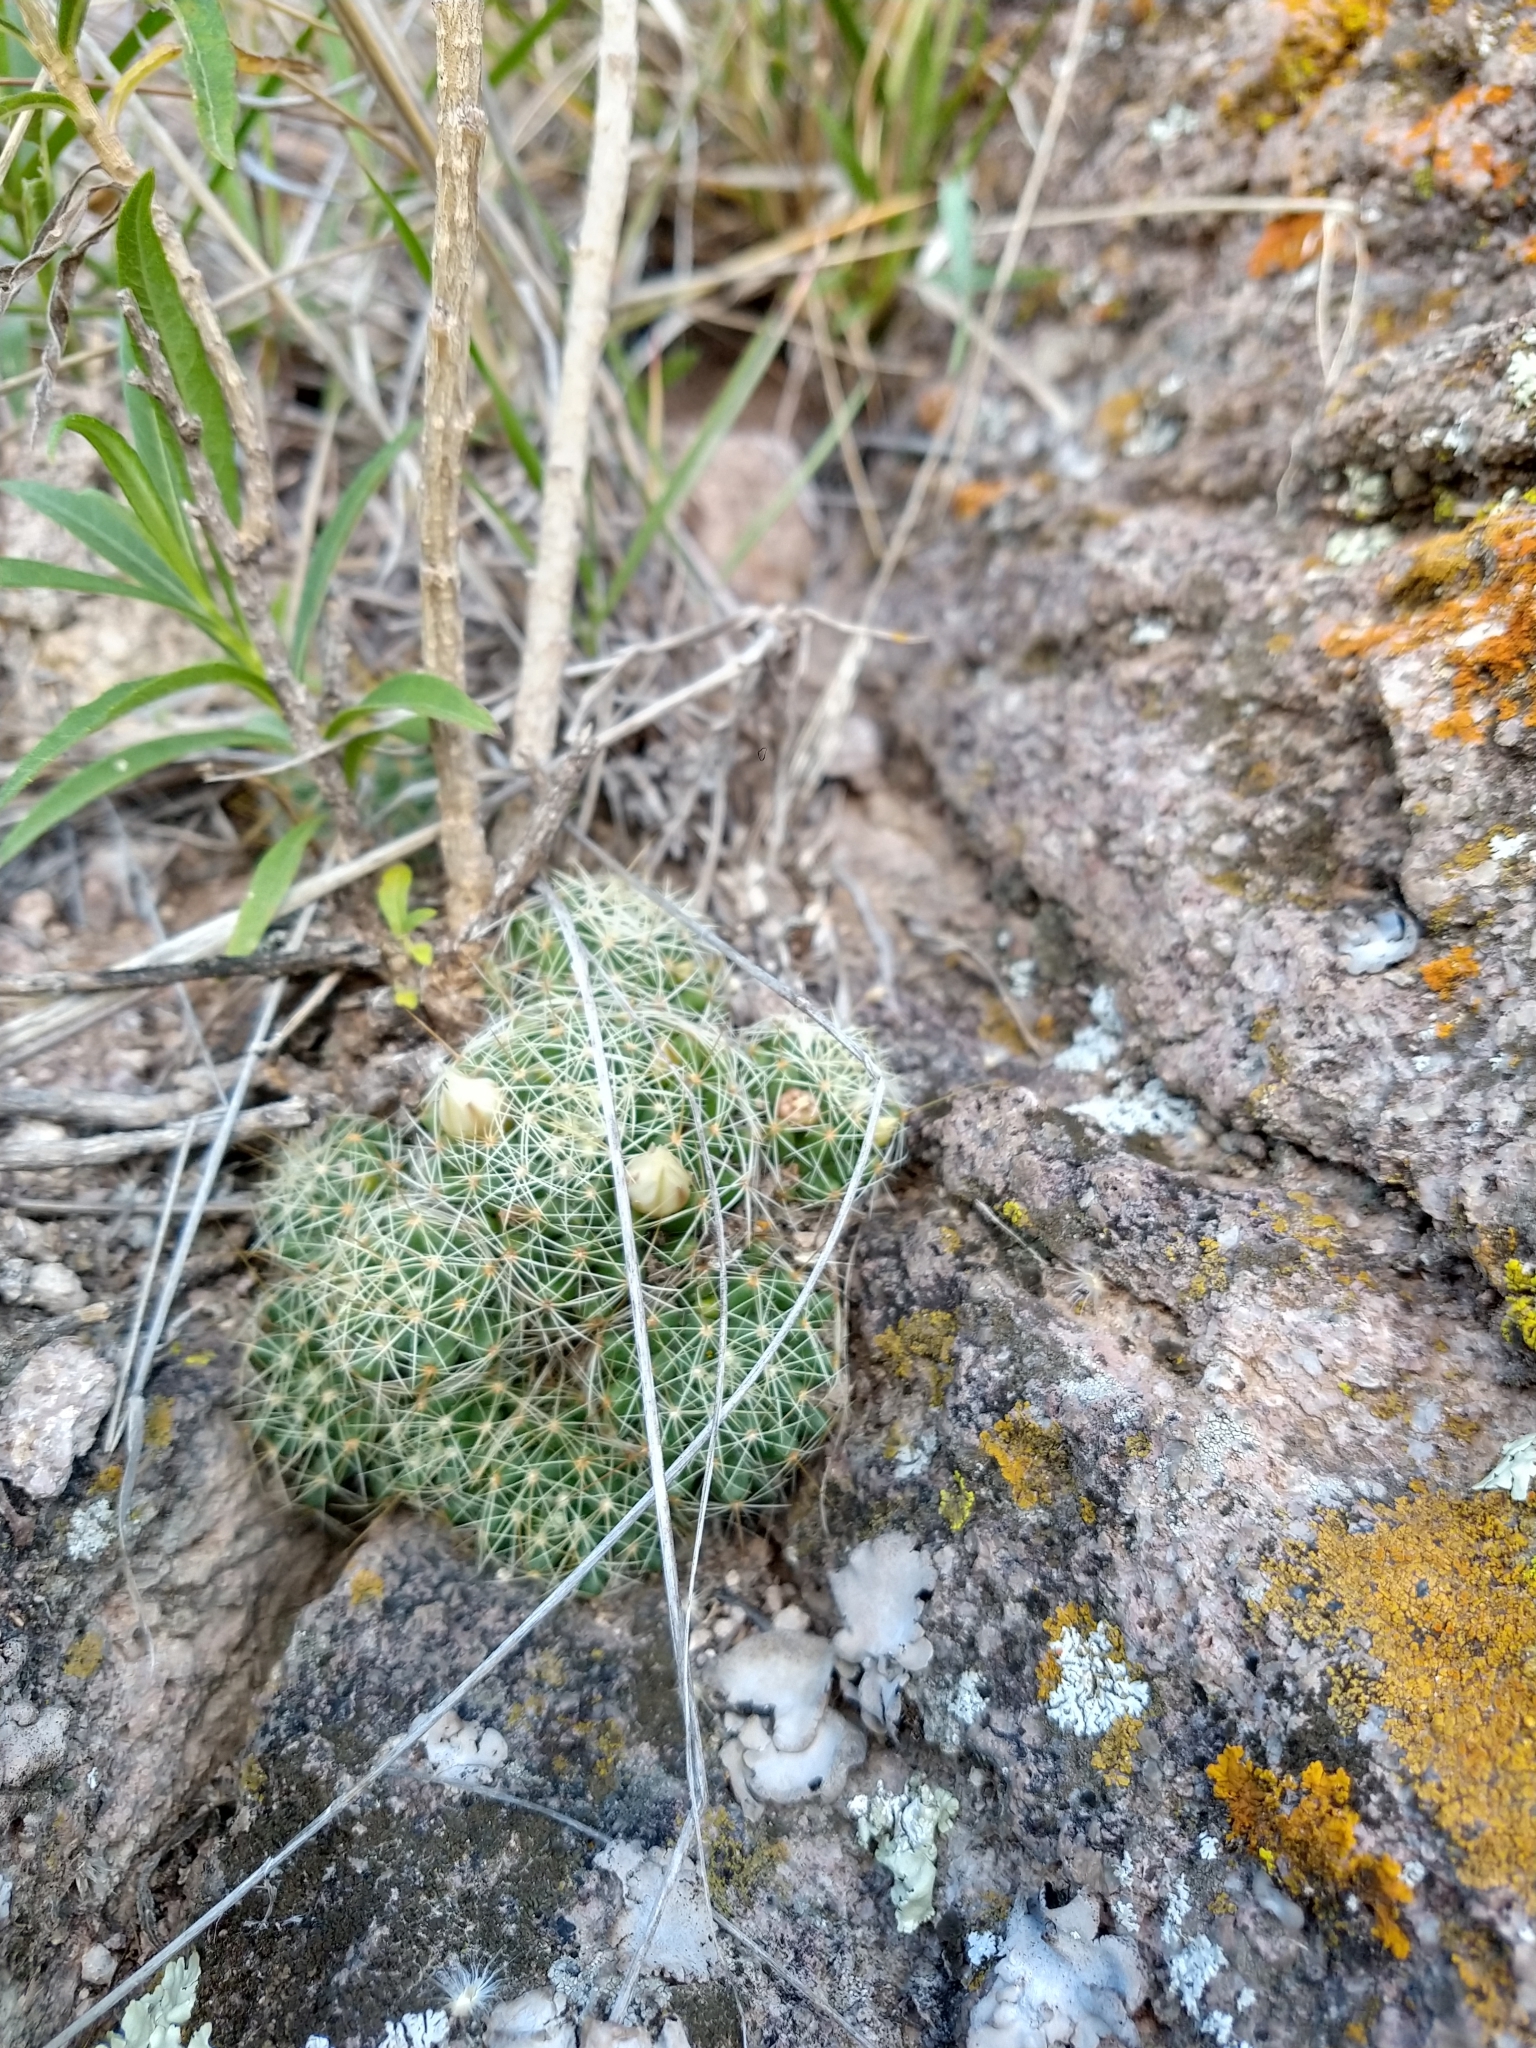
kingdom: Plantae
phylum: Tracheophyta
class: Magnoliopsida
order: Caryophyllales
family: Cactaceae
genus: Mammillaria
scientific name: Mammillaria decipiens
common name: Bird's-nest pincushion
